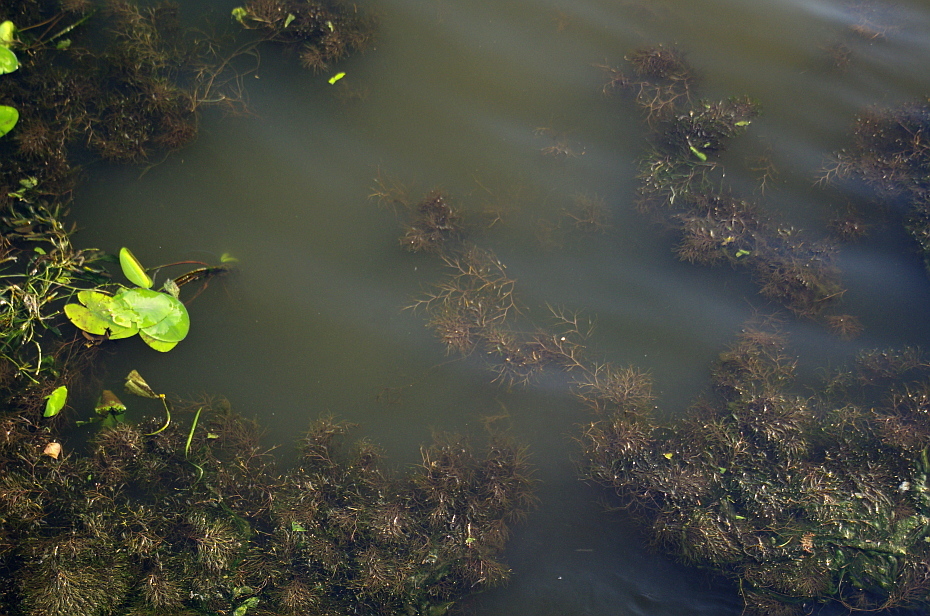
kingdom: Plantae
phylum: Tracheophyta
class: Liliopsida
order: Alismatales
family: Potamogetonaceae
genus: Stuckenia
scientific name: Stuckenia pectinata
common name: Sago pondweed
